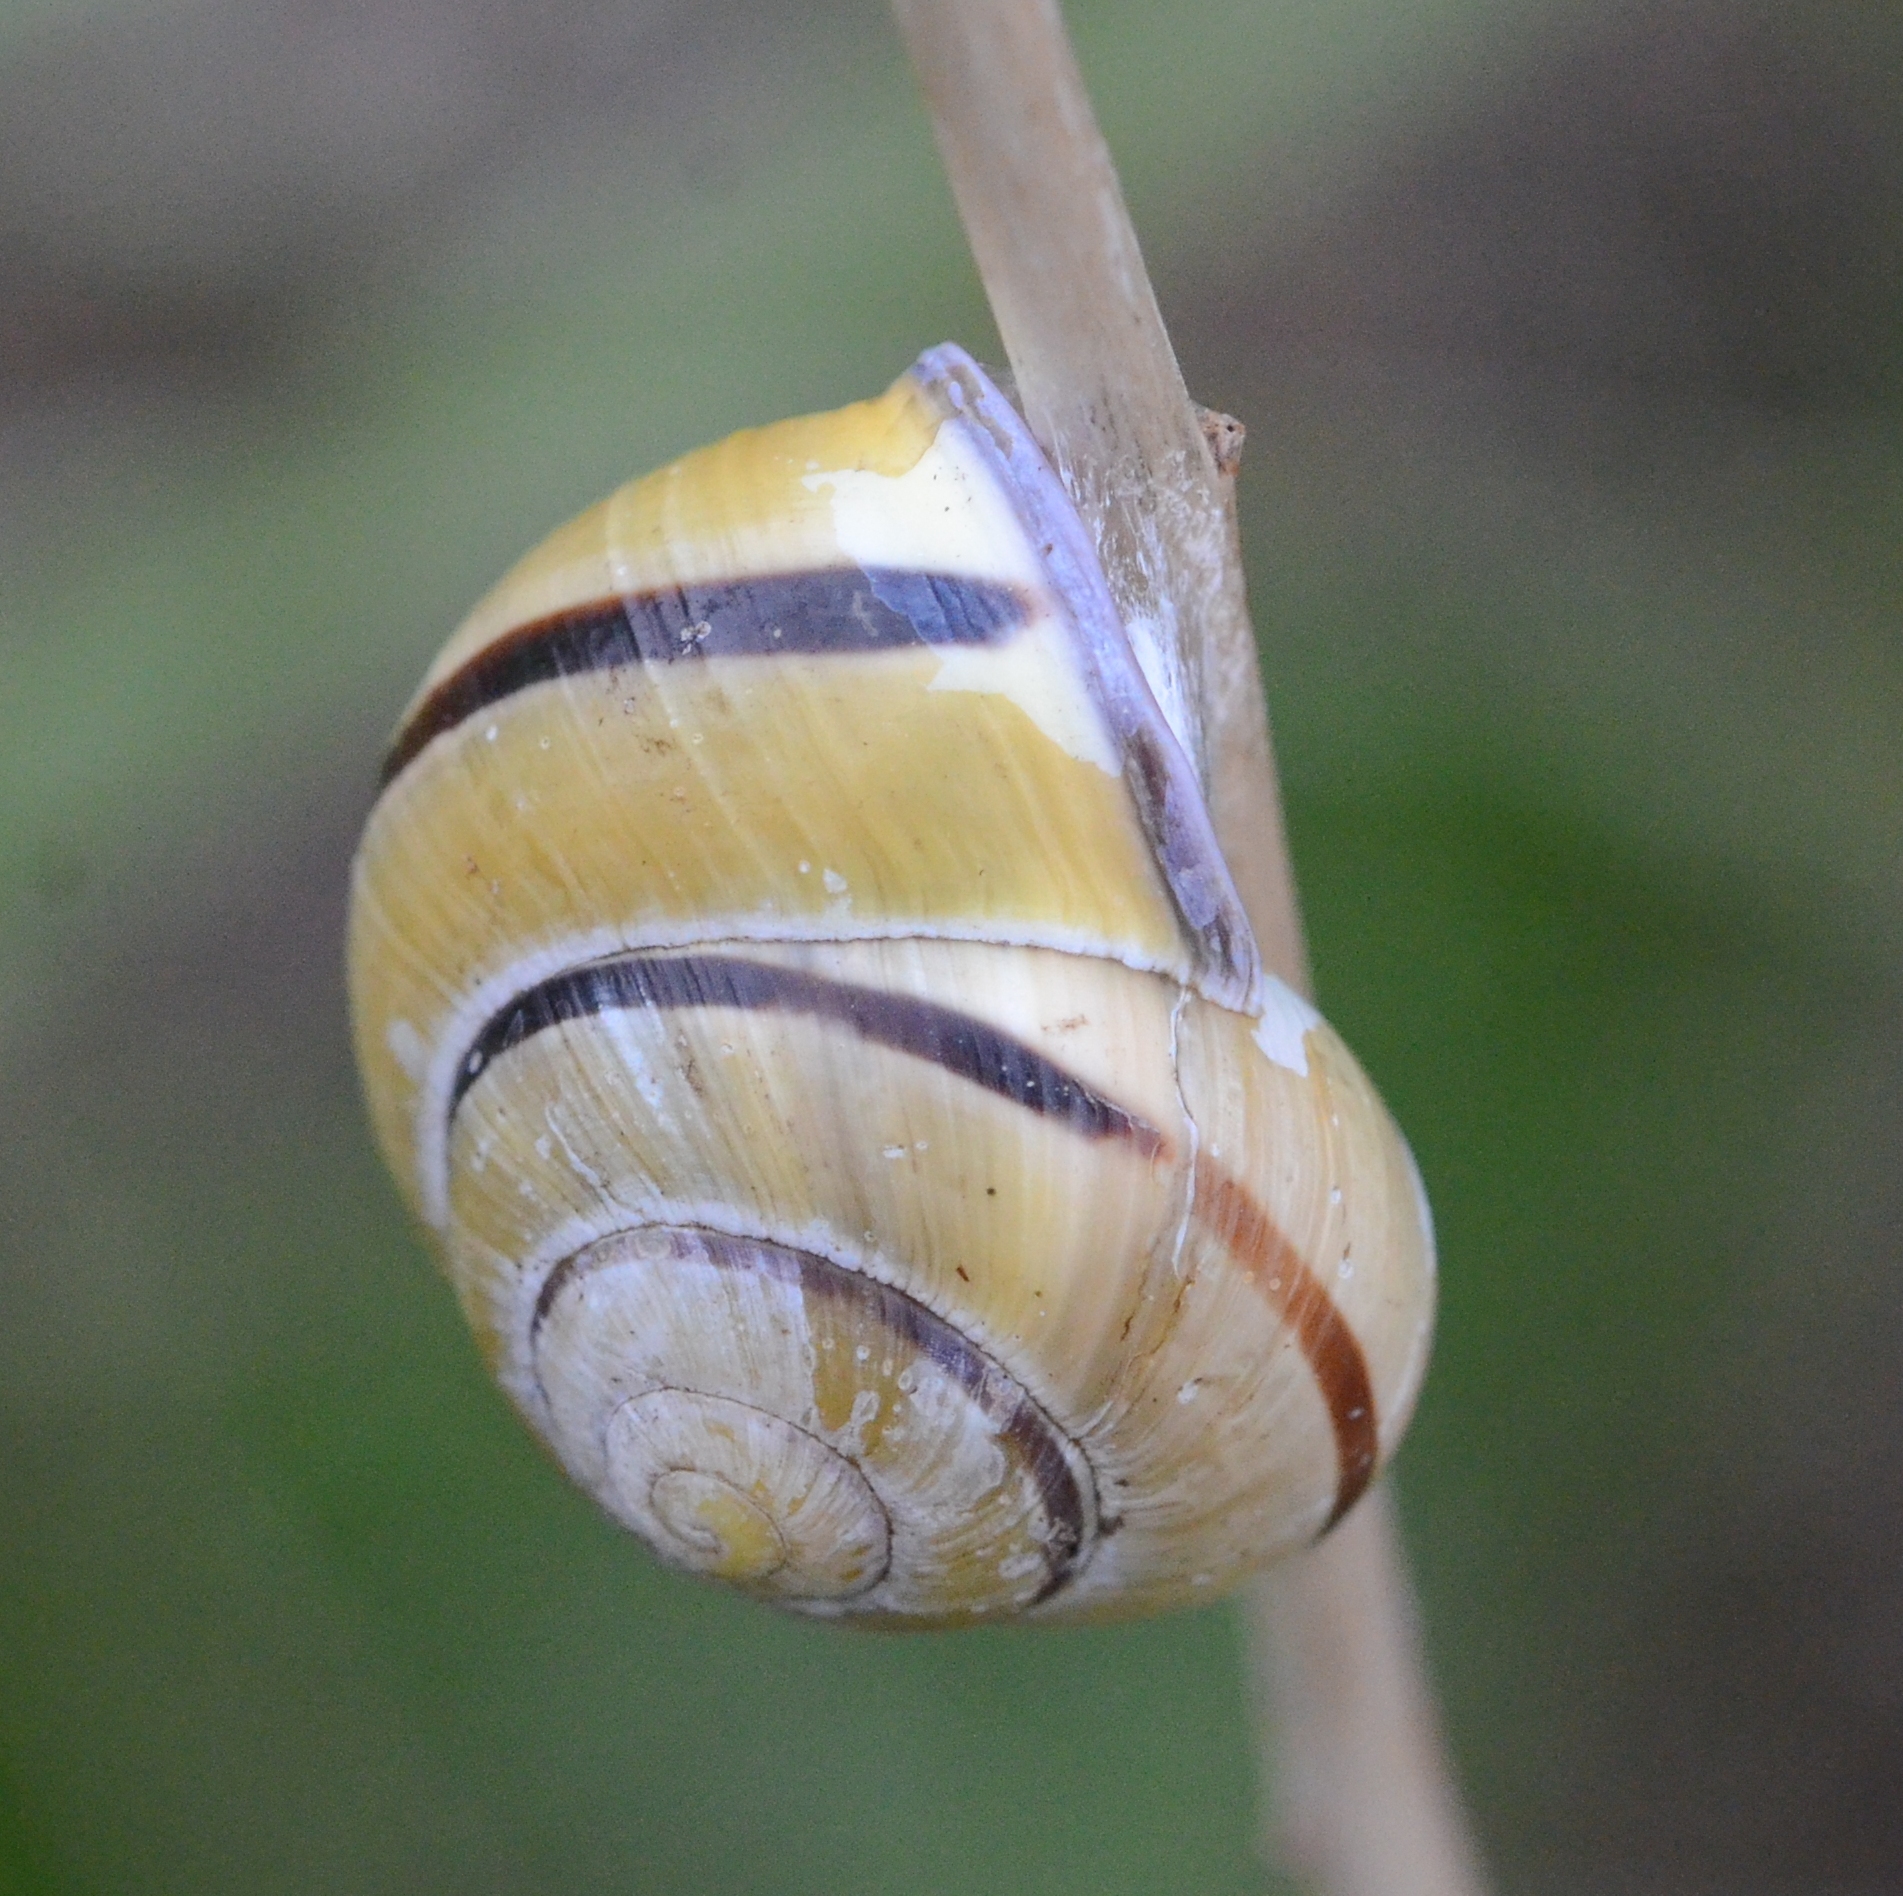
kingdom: Animalia
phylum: Mollusca
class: Gastropoda
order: Stylommatophora
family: Helicidae
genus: Cepaea
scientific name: Cepaea nemoralis
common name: Grovesnail
